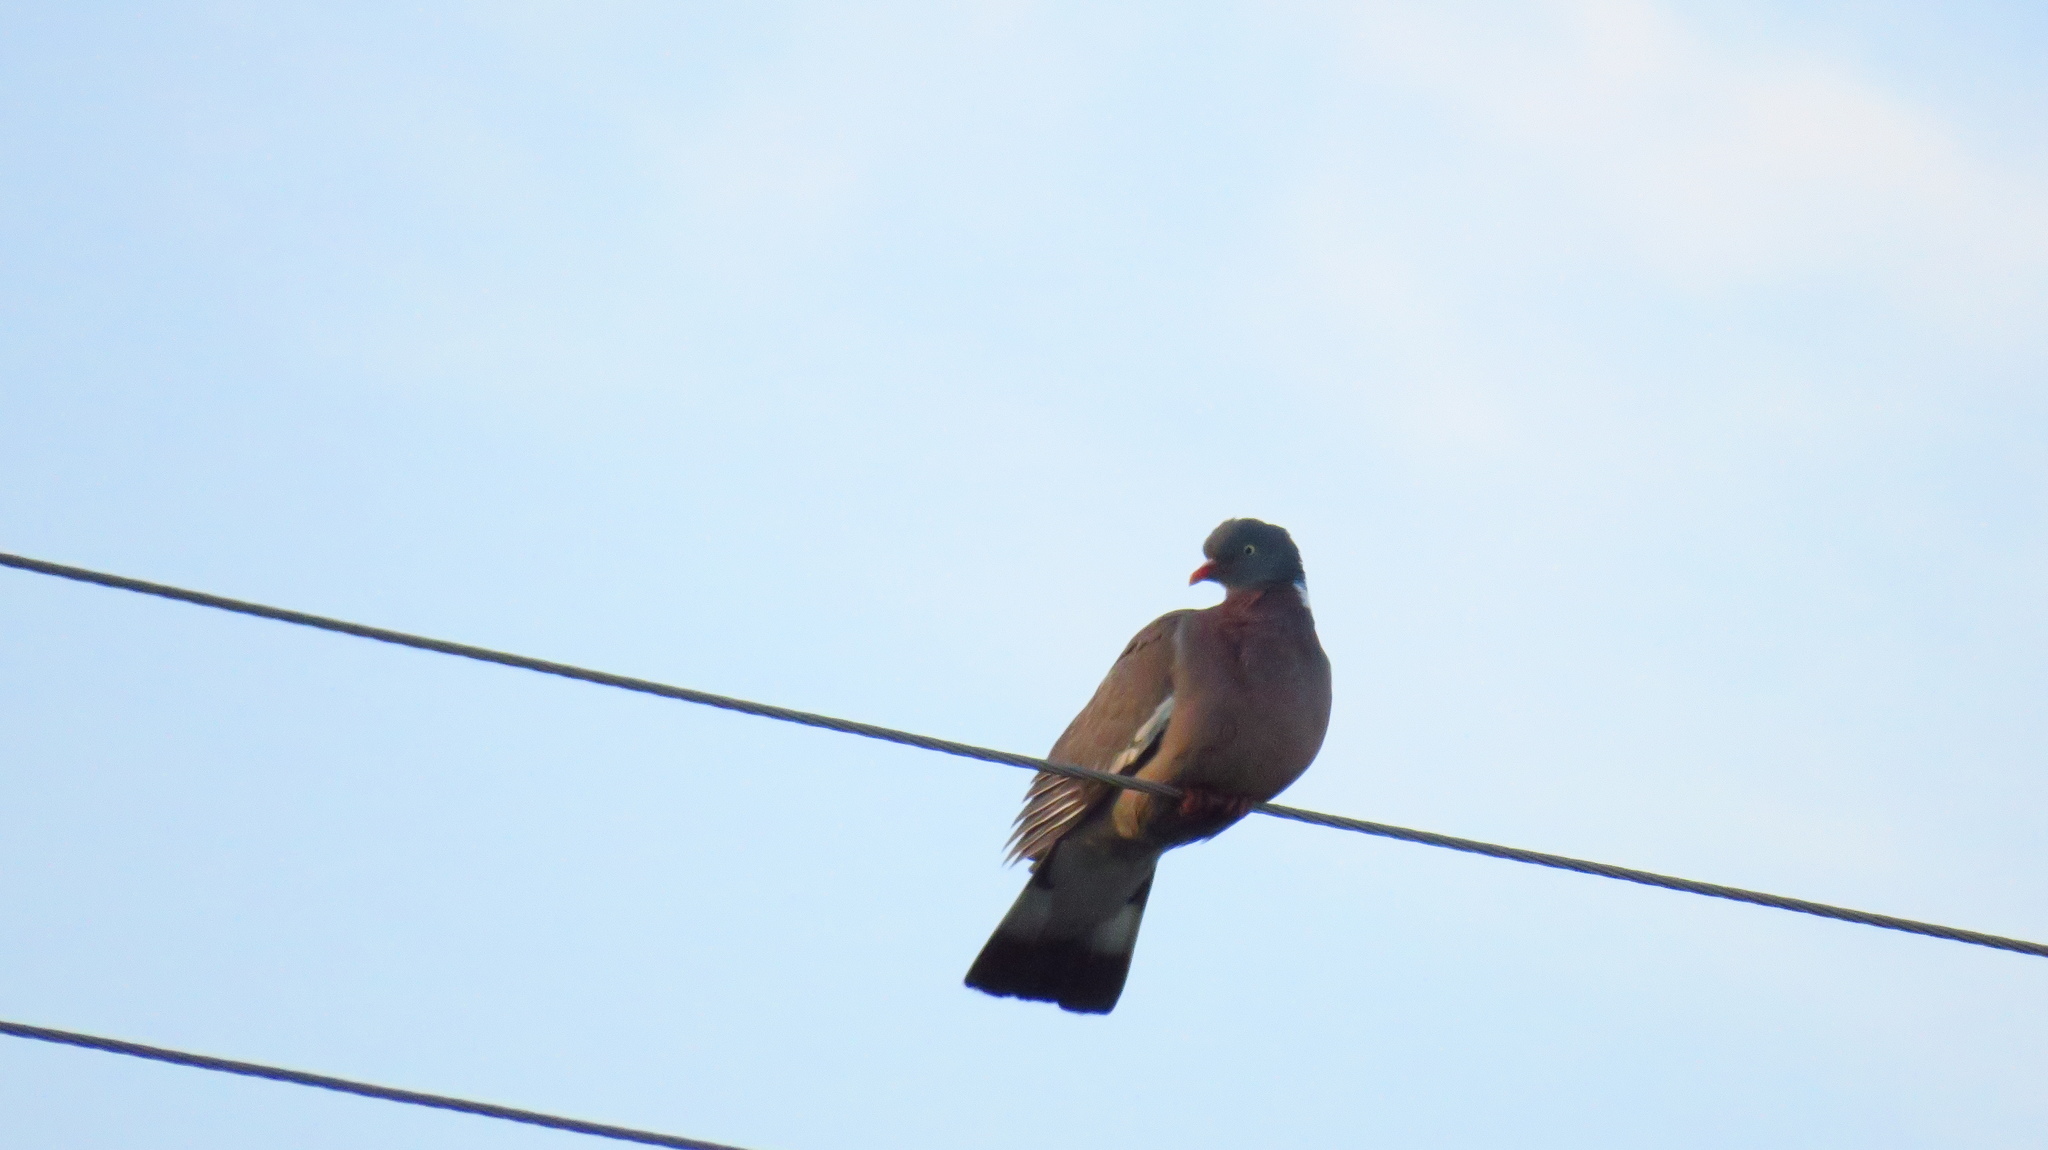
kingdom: Animalia
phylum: Chordata
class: Aves
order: Columbiformes
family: Columbidae
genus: Columba
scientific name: Columba palumbus
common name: Common wood pigeon
